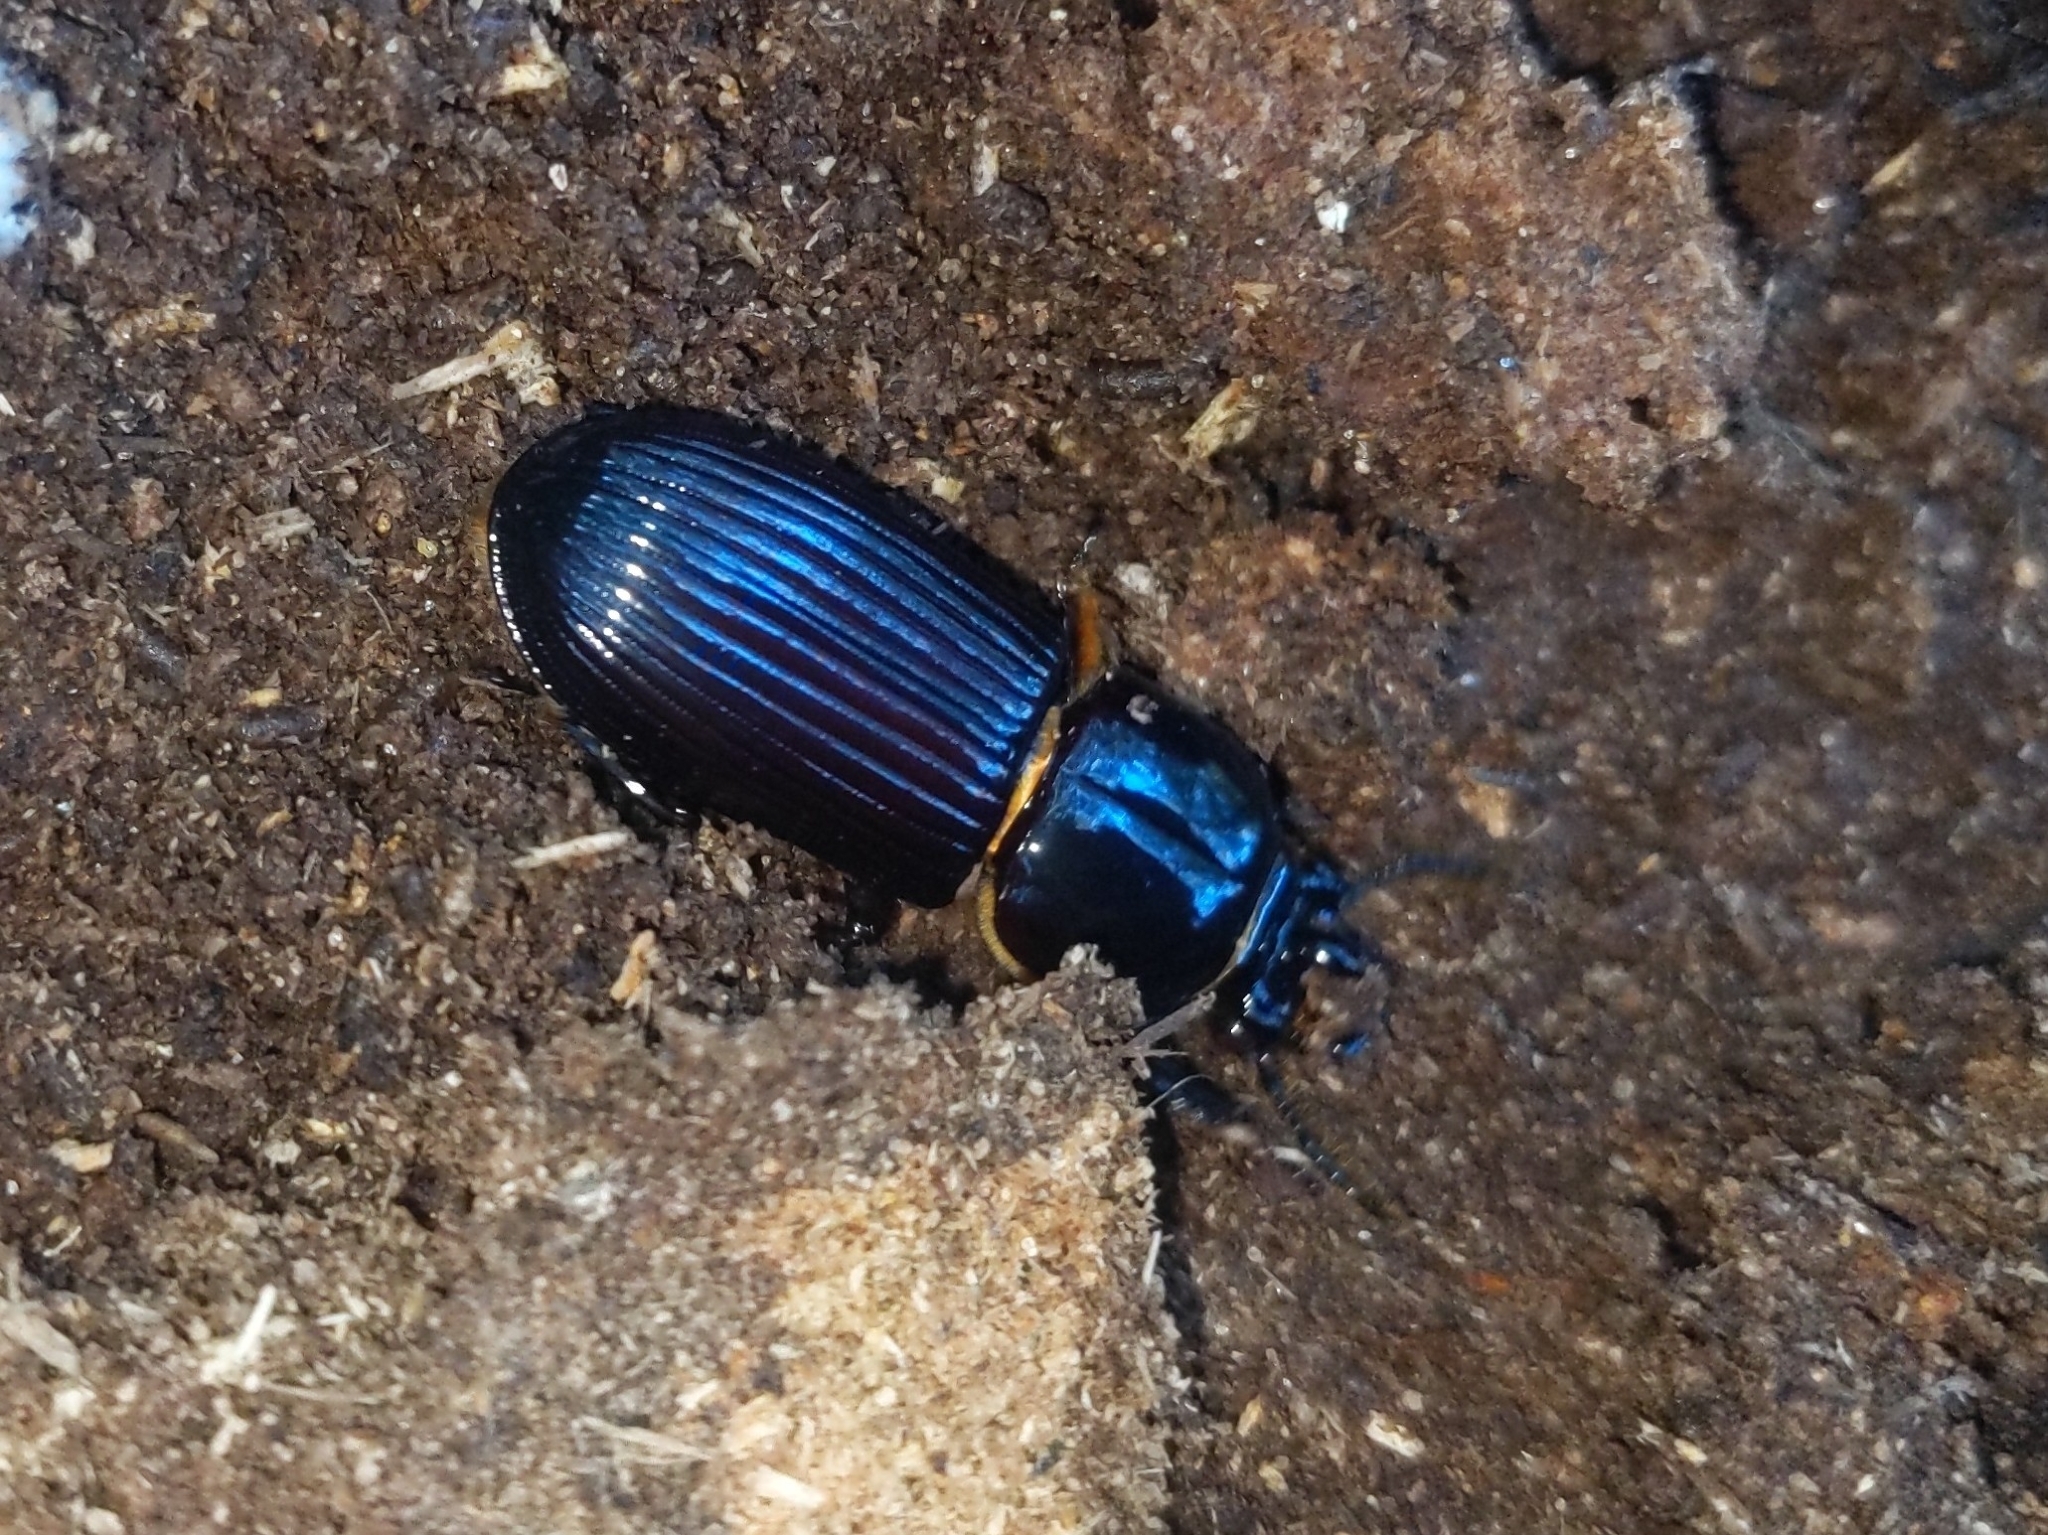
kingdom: Animalia
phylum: Arthropoda
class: Insecta
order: Coleoptera
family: Passalidae
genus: Odontotaenius
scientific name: Odontotaenius disjunctus
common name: Patent leather beetle
